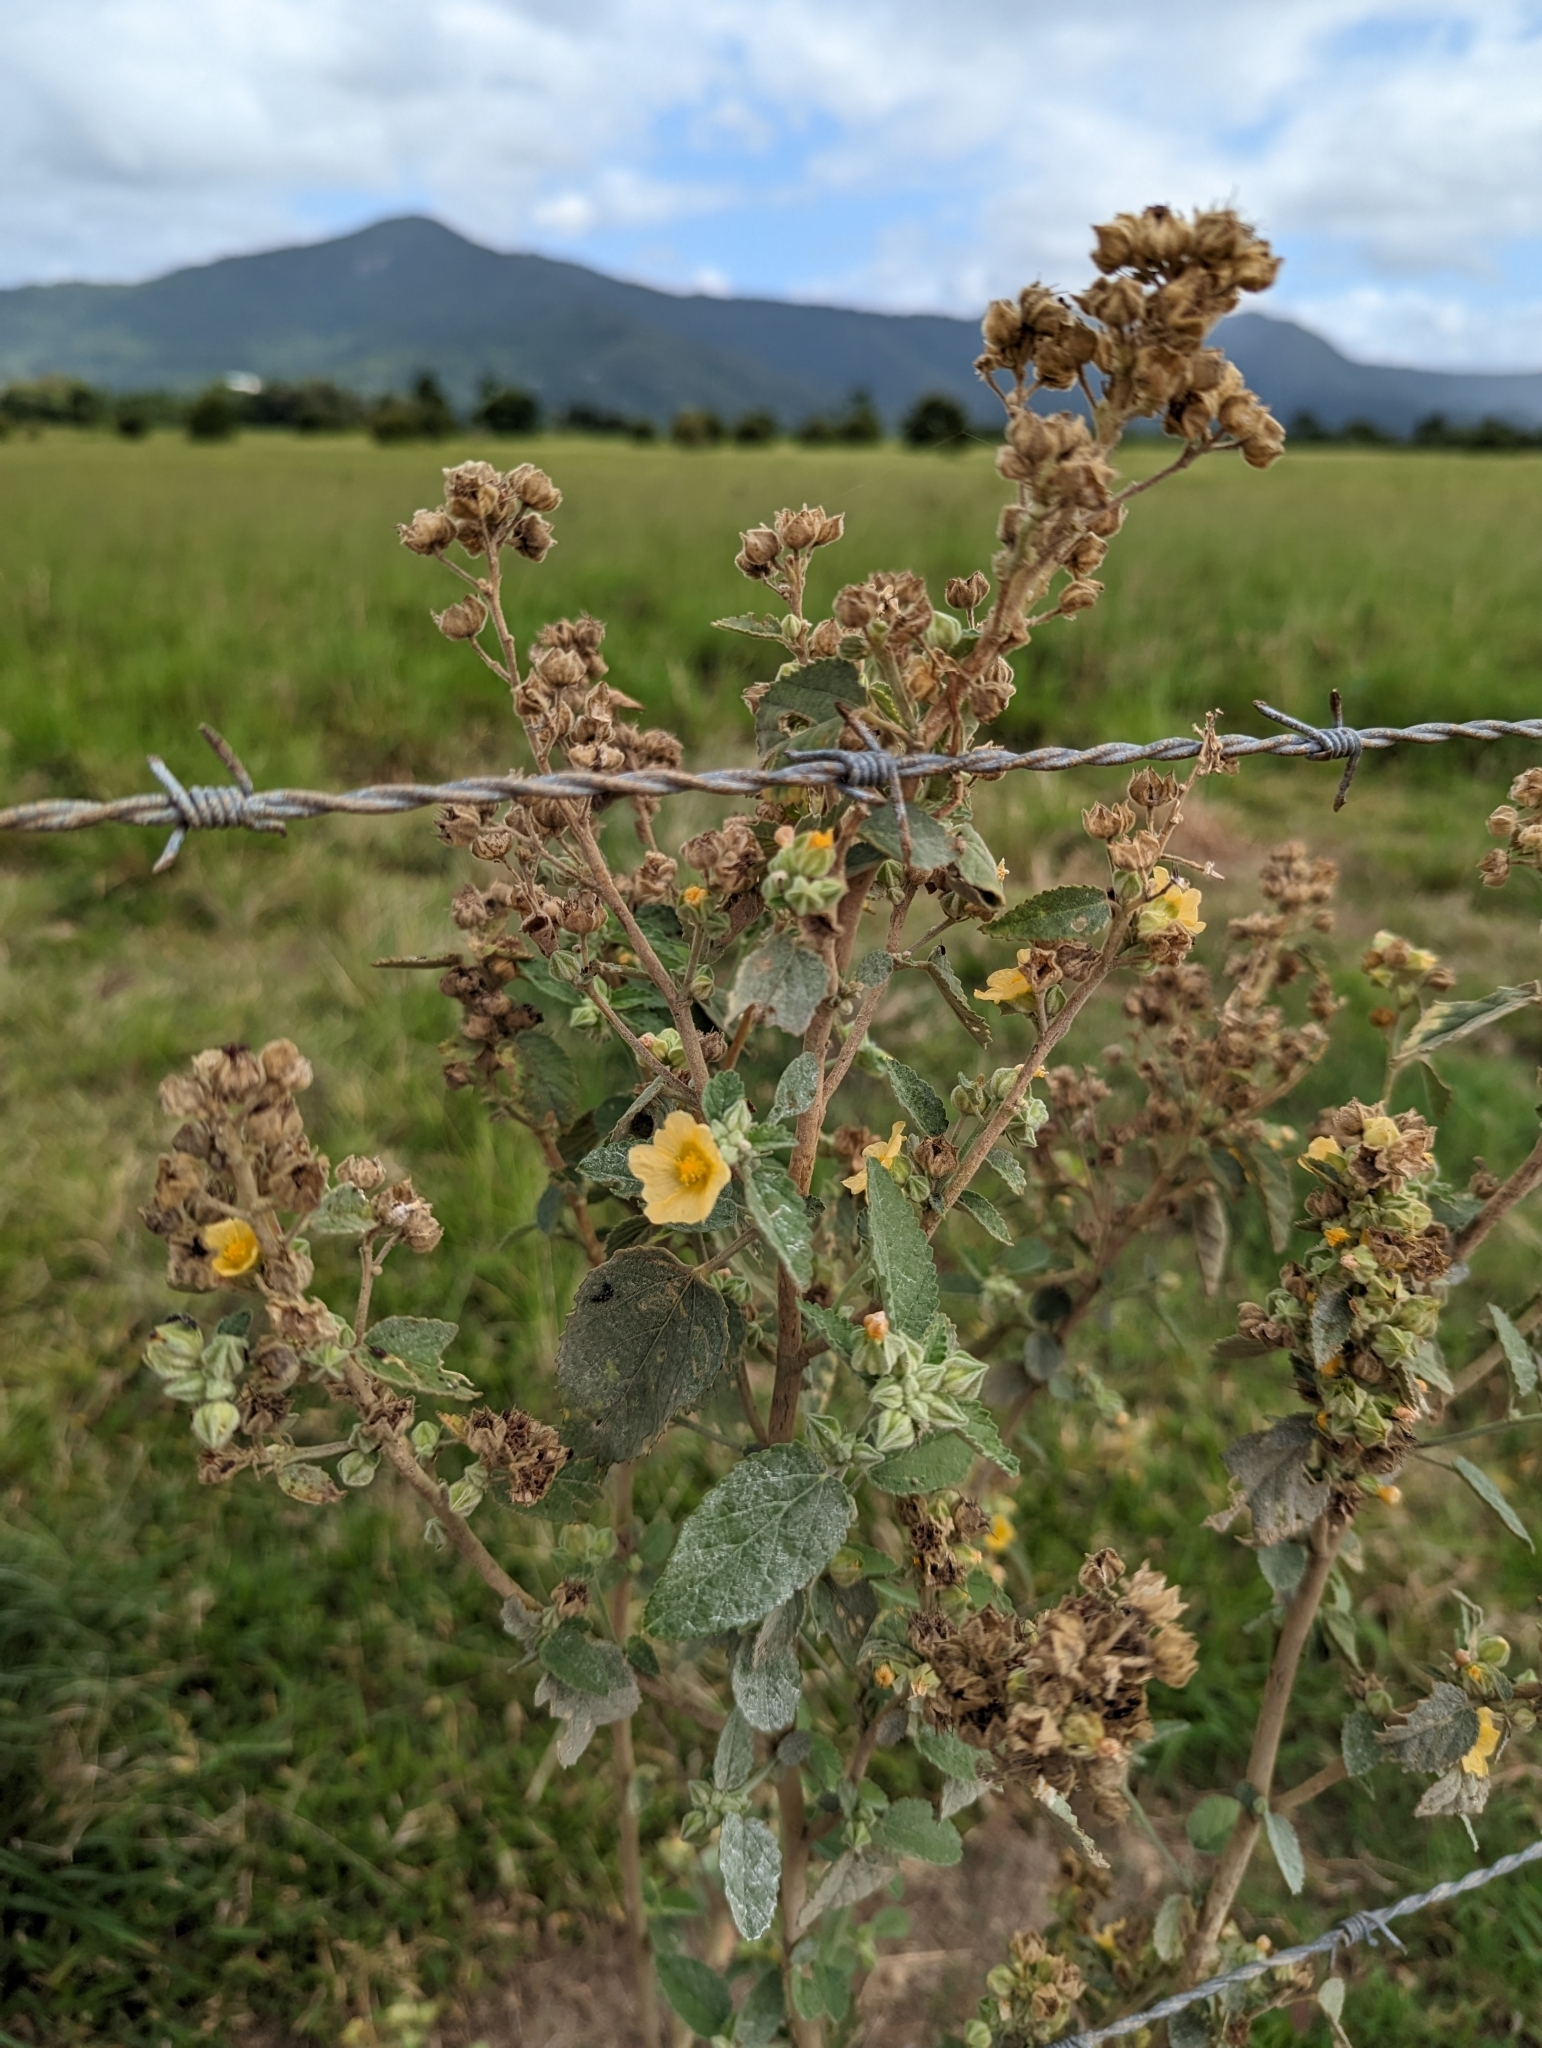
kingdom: Plantae
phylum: Tracheophyta
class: Magnoliopsida
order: Malvales
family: Malvaceae
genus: Sida
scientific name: Sida cordifolia
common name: Ilima
